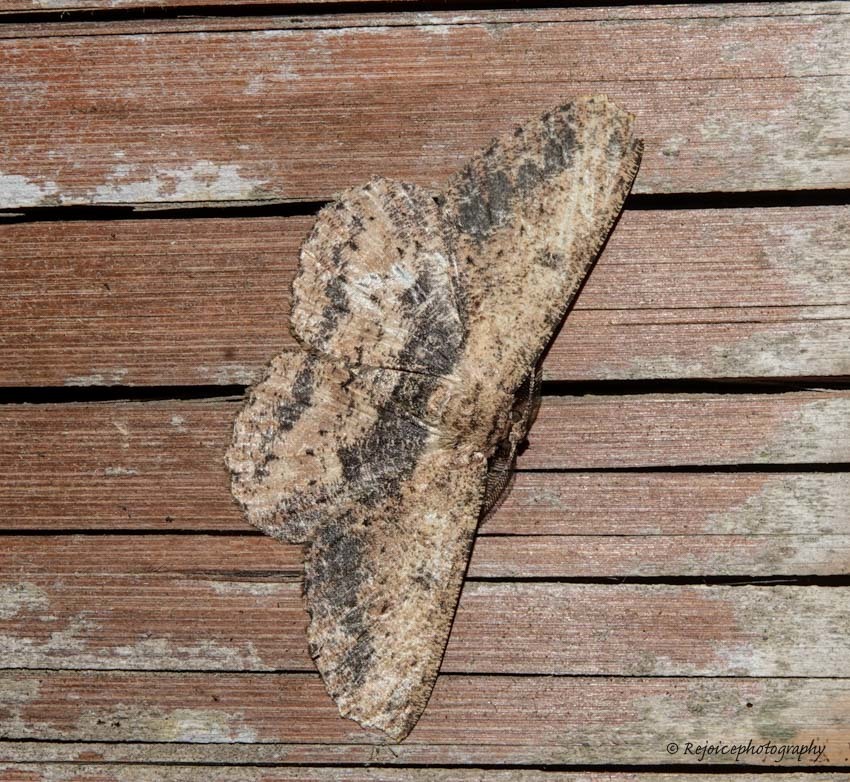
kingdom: Animalia
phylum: Arthropoda
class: Insecta
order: Lepidoptera
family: Geometridae
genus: Hypomecis
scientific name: Hypomecis separata
